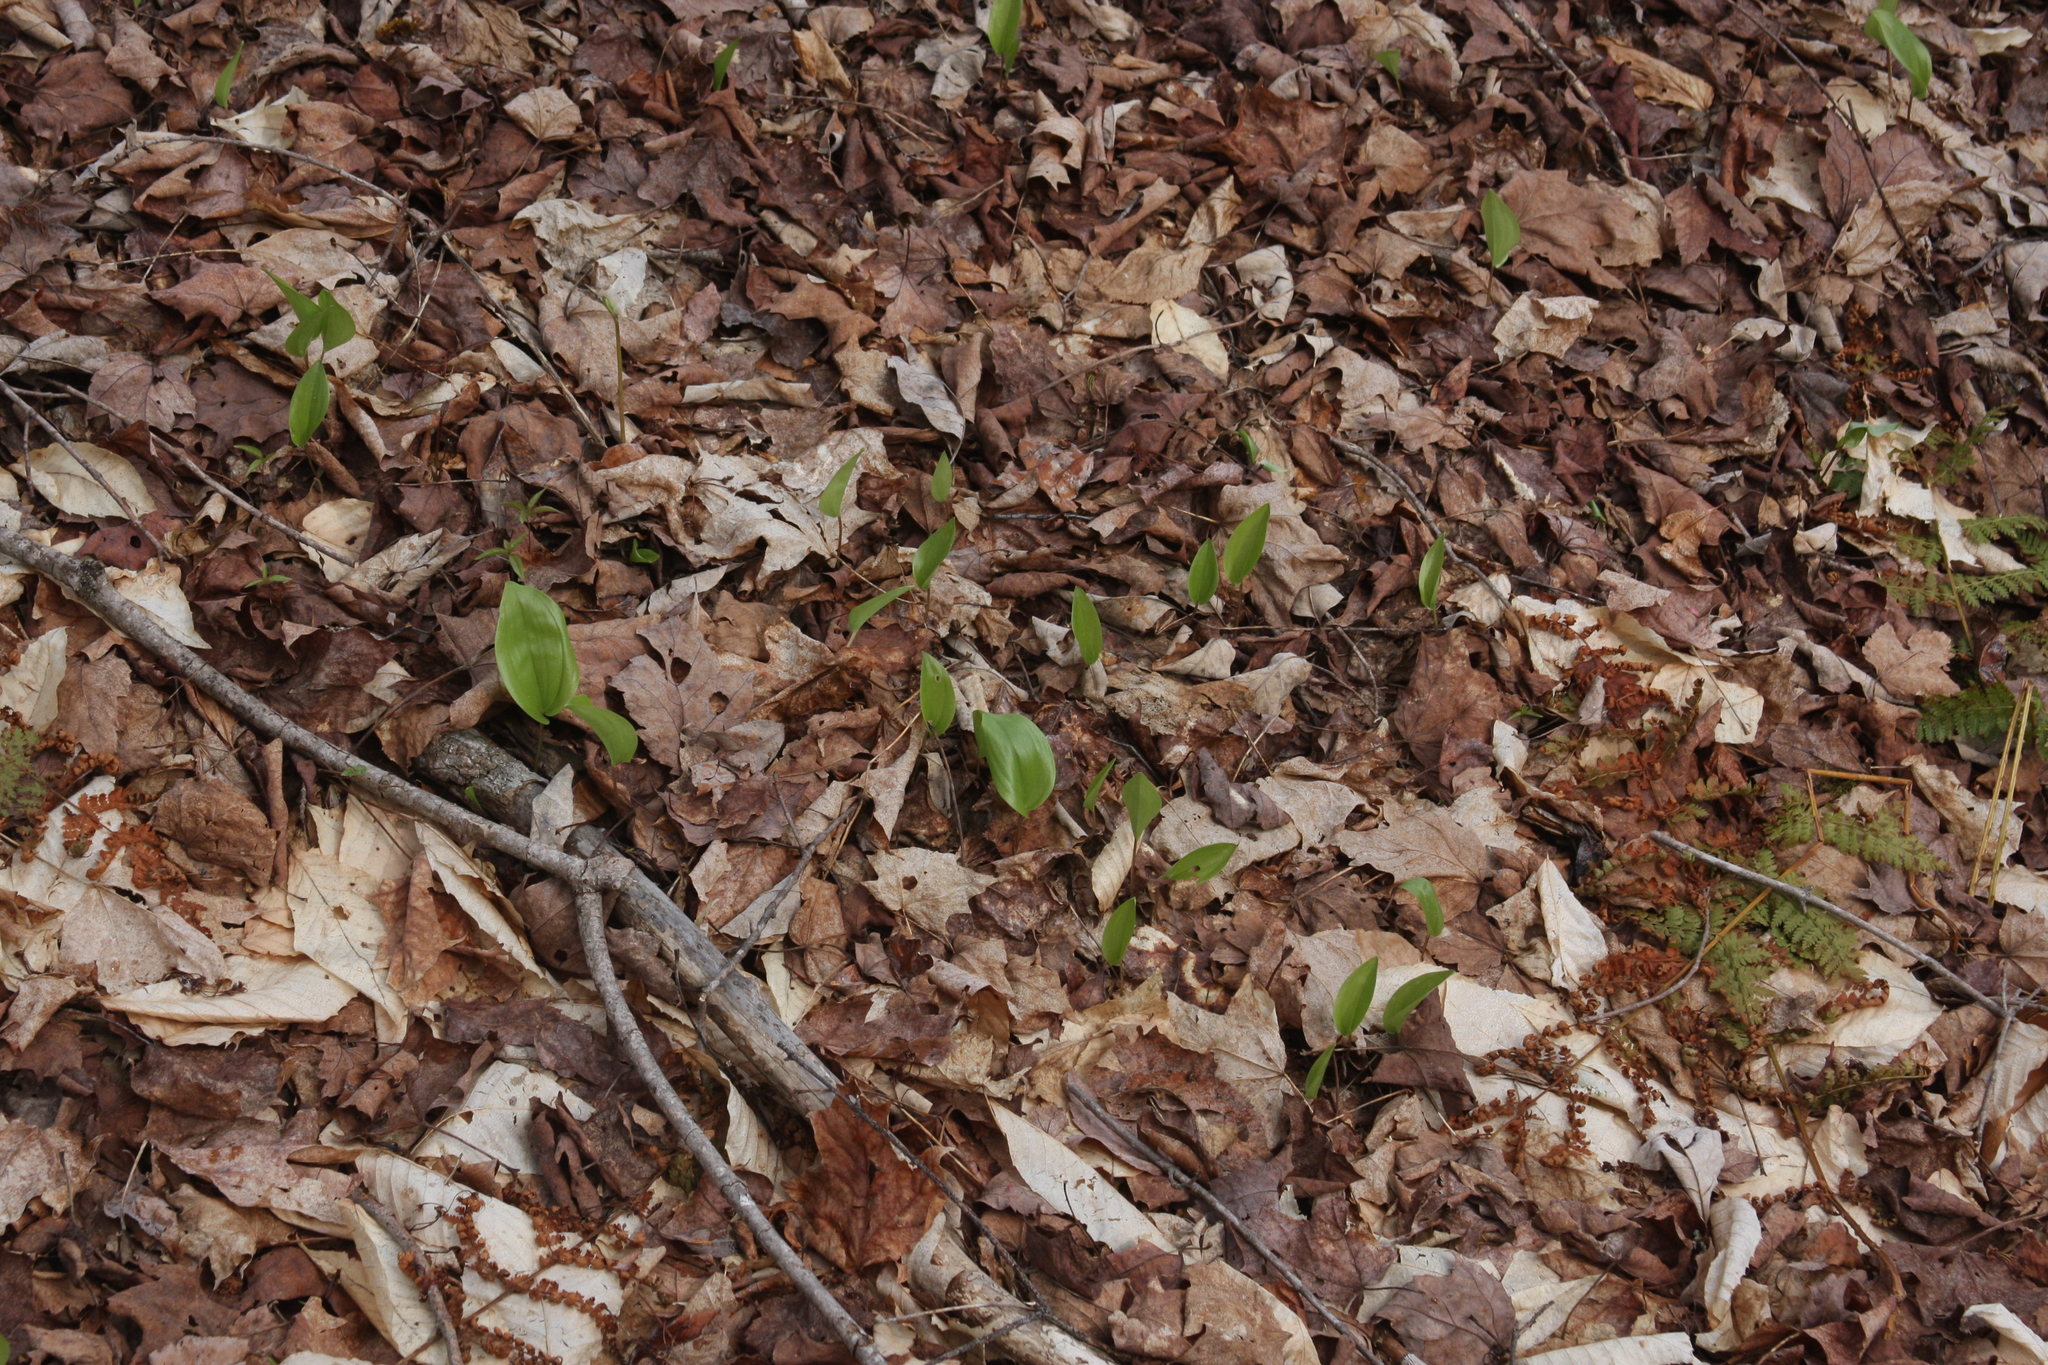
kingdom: Plantae
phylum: Tracheophyta
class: Liliopsida
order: Asparagales
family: Asparagaceae
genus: Maianthemum
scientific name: Maianthemum canadense
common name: False lily-of-the-valley
